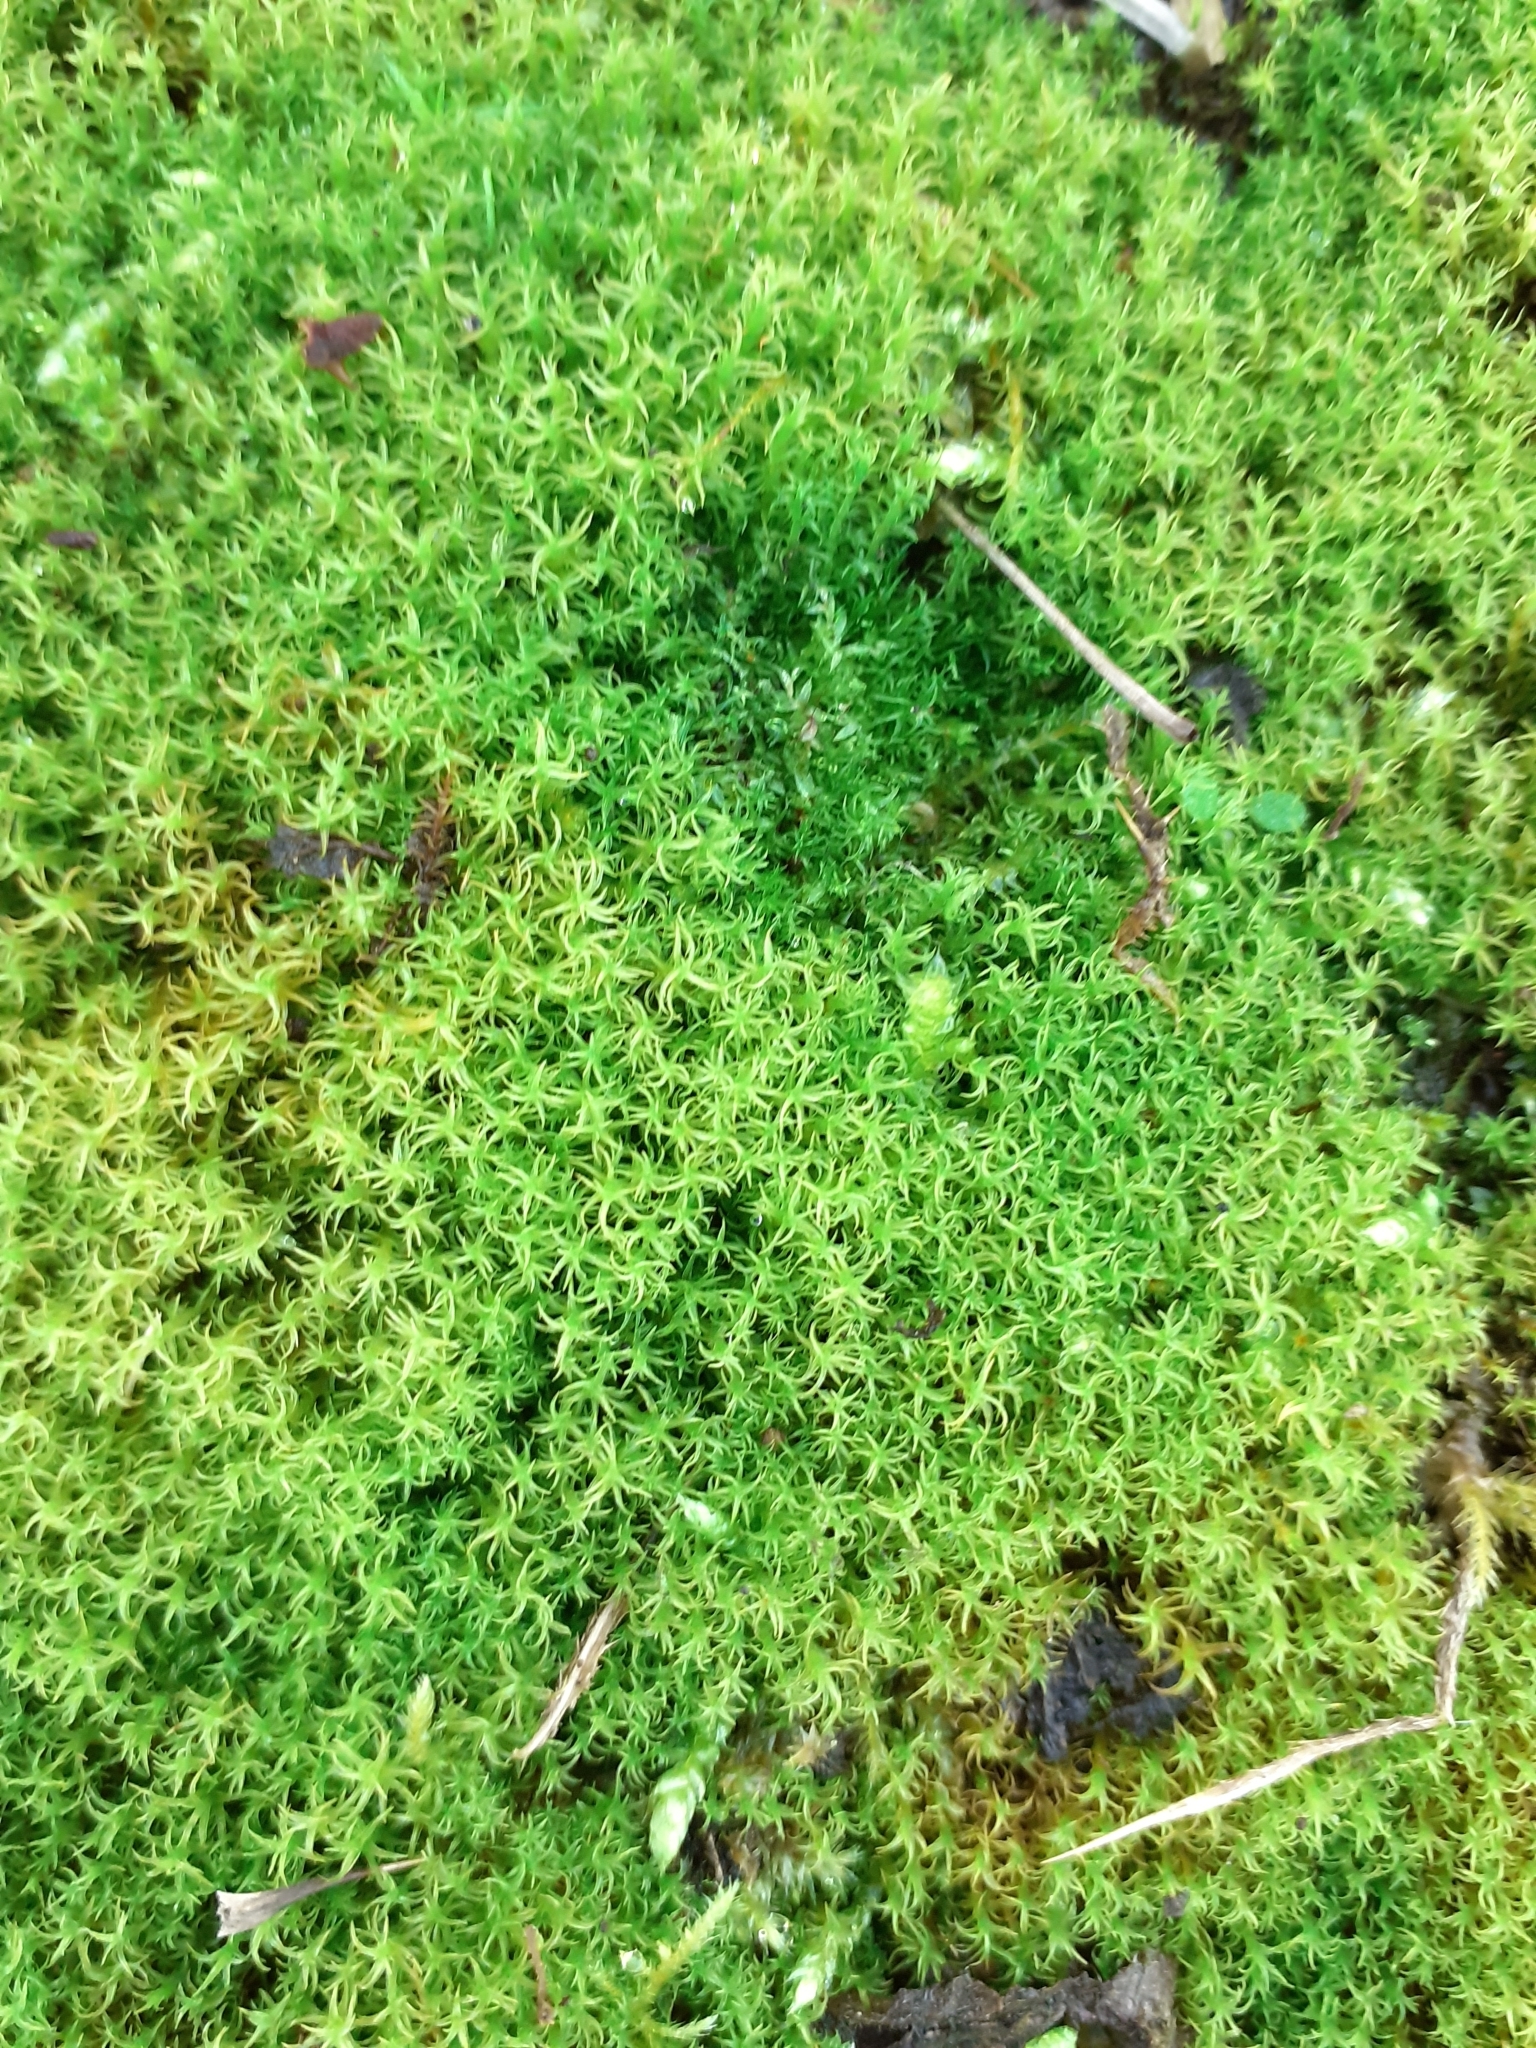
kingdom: Plantae
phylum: Bryophyta
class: Bryopsida
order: Pottiales
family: Pottiaceae
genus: Vinealobryum
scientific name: Vinealobryum insulanum
